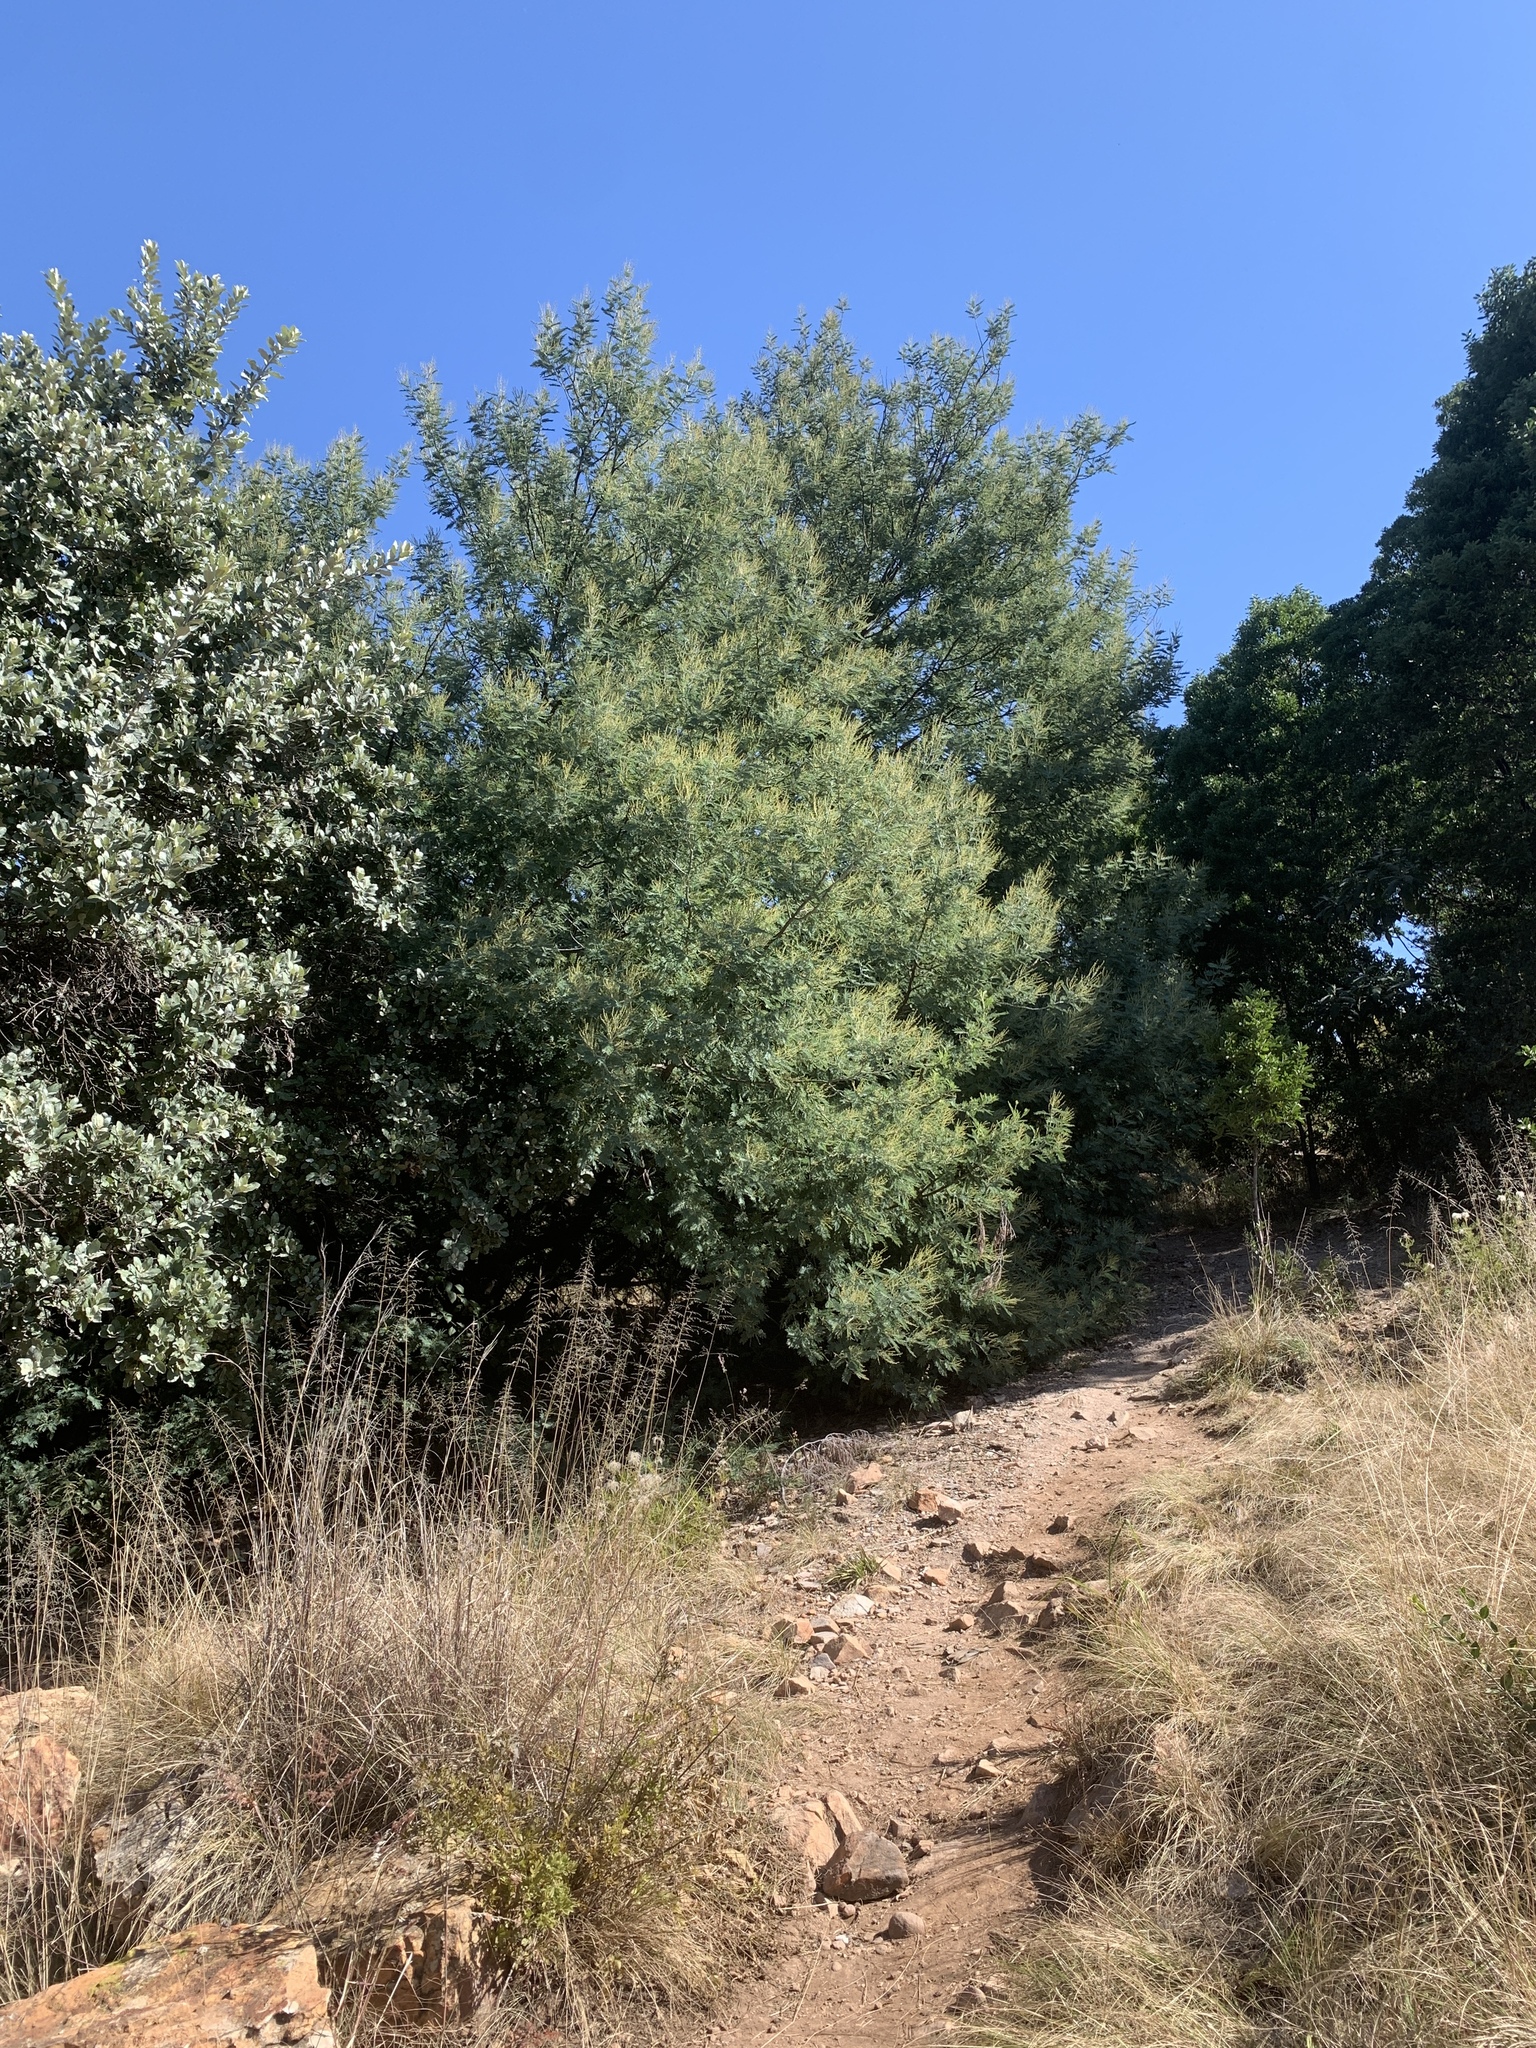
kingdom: Plantae
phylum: Tracheophyta
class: Magnoliopsida
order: Fabales
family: Fabaceae
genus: Acacia
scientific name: Acacia dealbata
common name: Silver wattle
